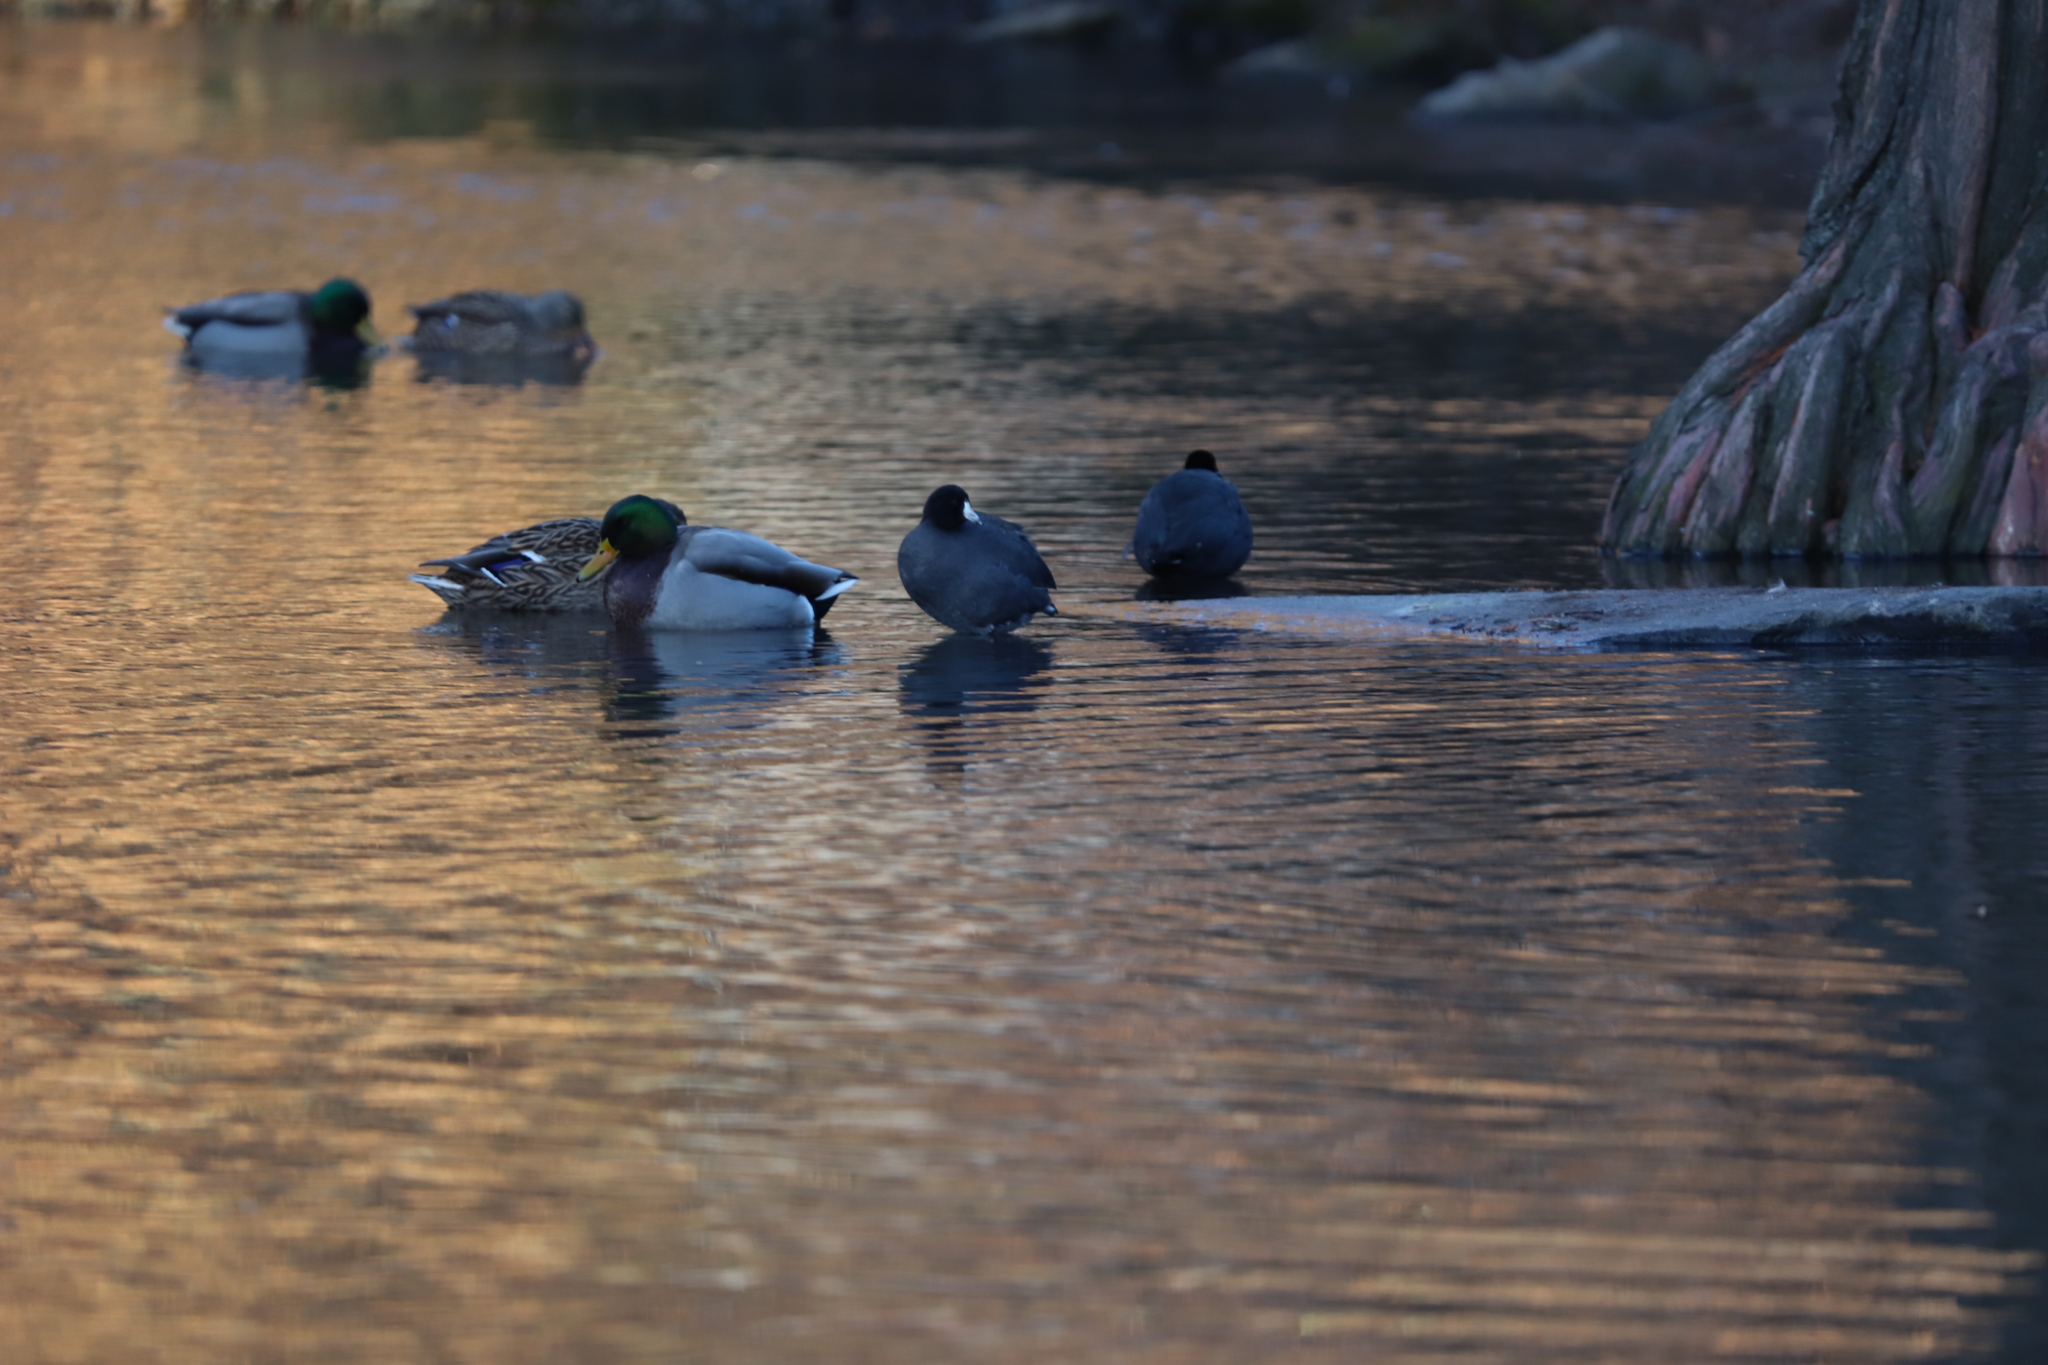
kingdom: Animalia
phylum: Chordata
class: Aves
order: Gruiformes
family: Rallidae
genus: Fulica
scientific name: Fulica americana
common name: American coot
